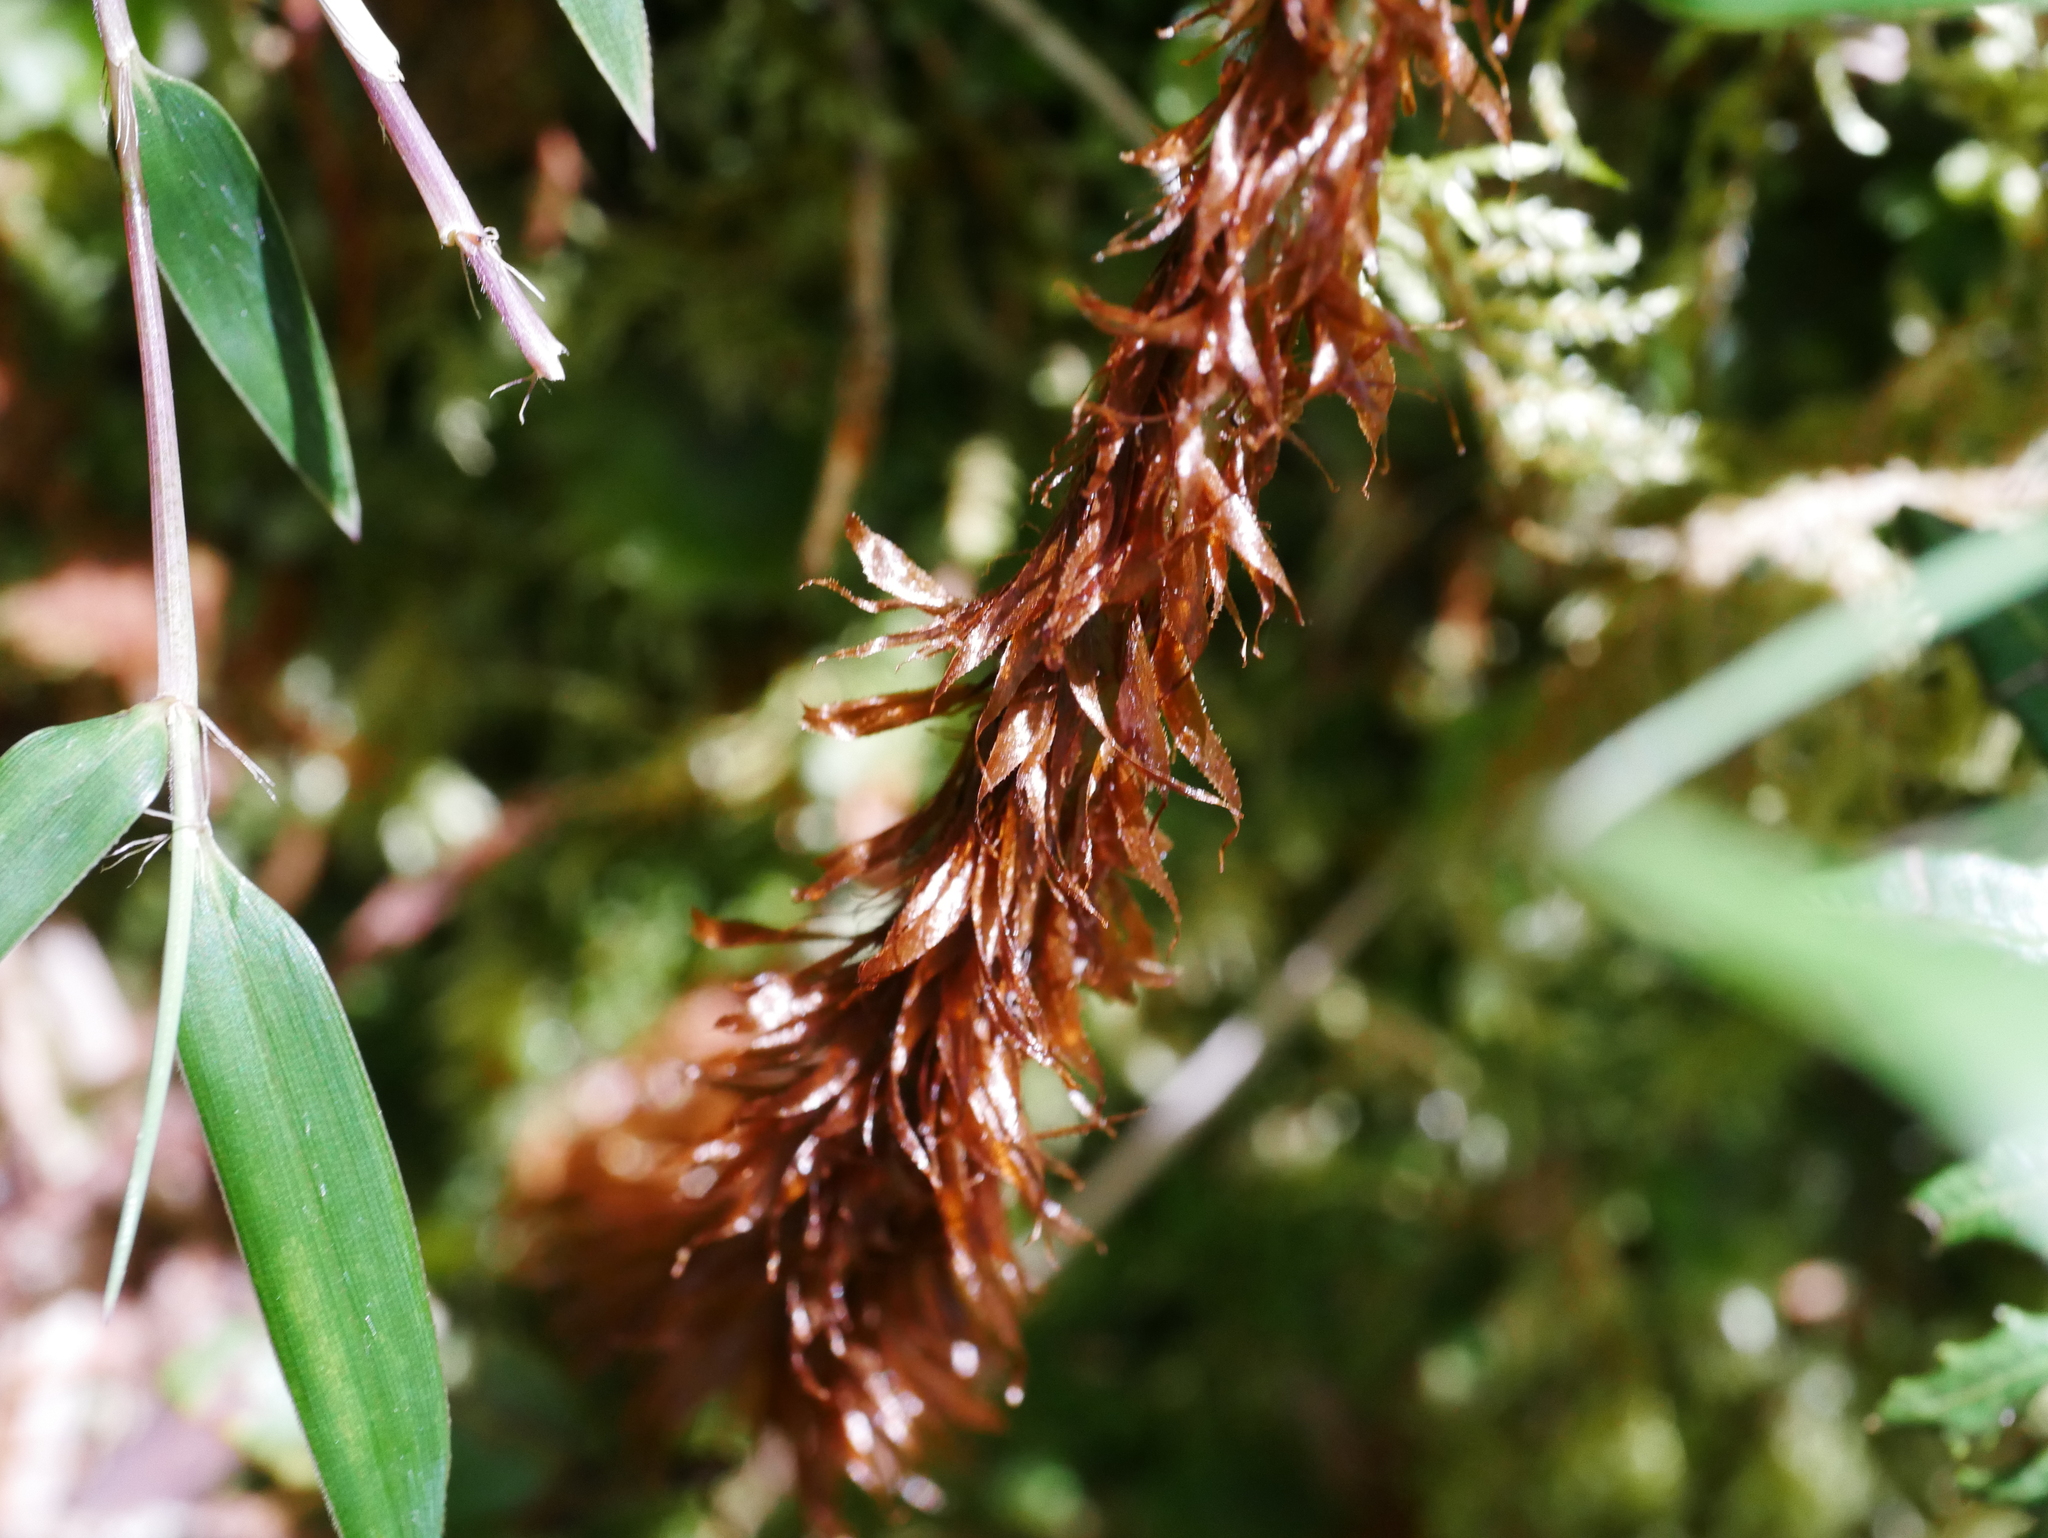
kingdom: Plantae
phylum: Tracheophyta
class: Polypodiopsida
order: Polypodiales
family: Dryopteridaceae
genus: Dryopteris
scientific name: Dryopteris reflexosquamata
